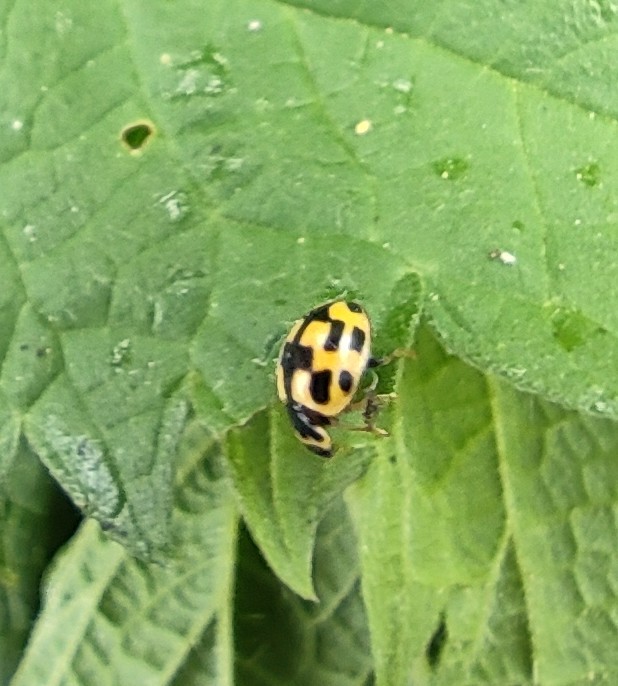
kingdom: Animalia
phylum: Arthropoda
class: Insecta
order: Coleoptera
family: Coccinellidae
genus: Propylaea
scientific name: Propylaea quatuordecimpunctata
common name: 14-spotted ladybird beetle
